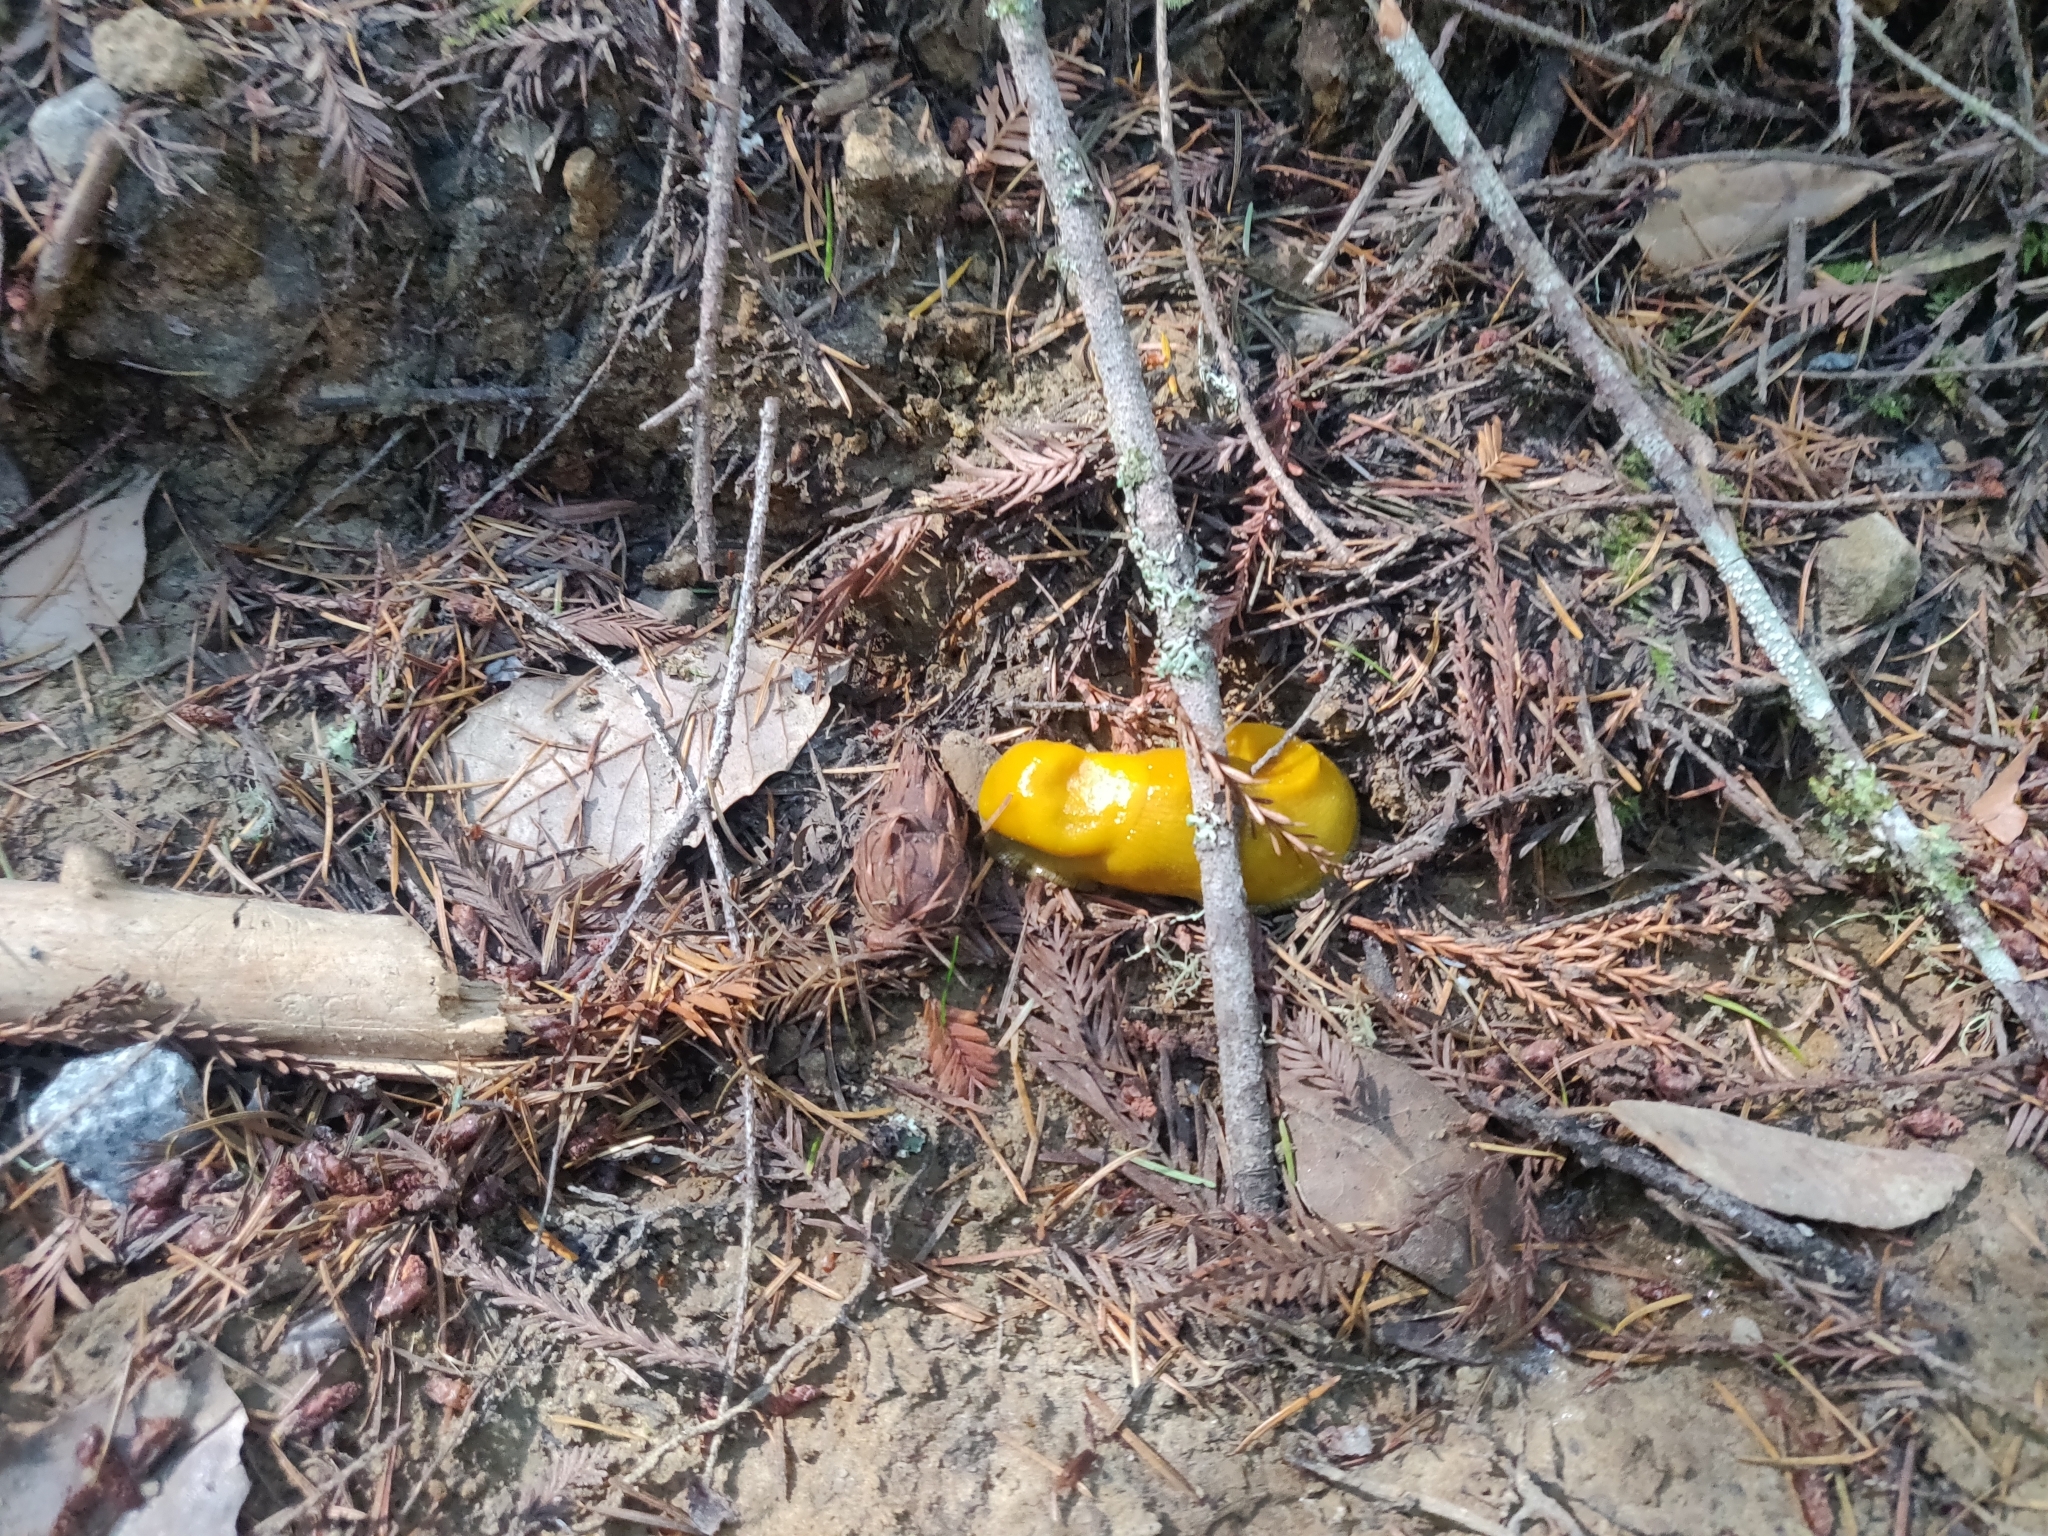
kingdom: Animalia
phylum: Mollusca
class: Gastropoda
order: Stylommatophora
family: Ariolimacidae
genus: Ariolimax
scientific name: Ariolimax californicus
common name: California banana slug
